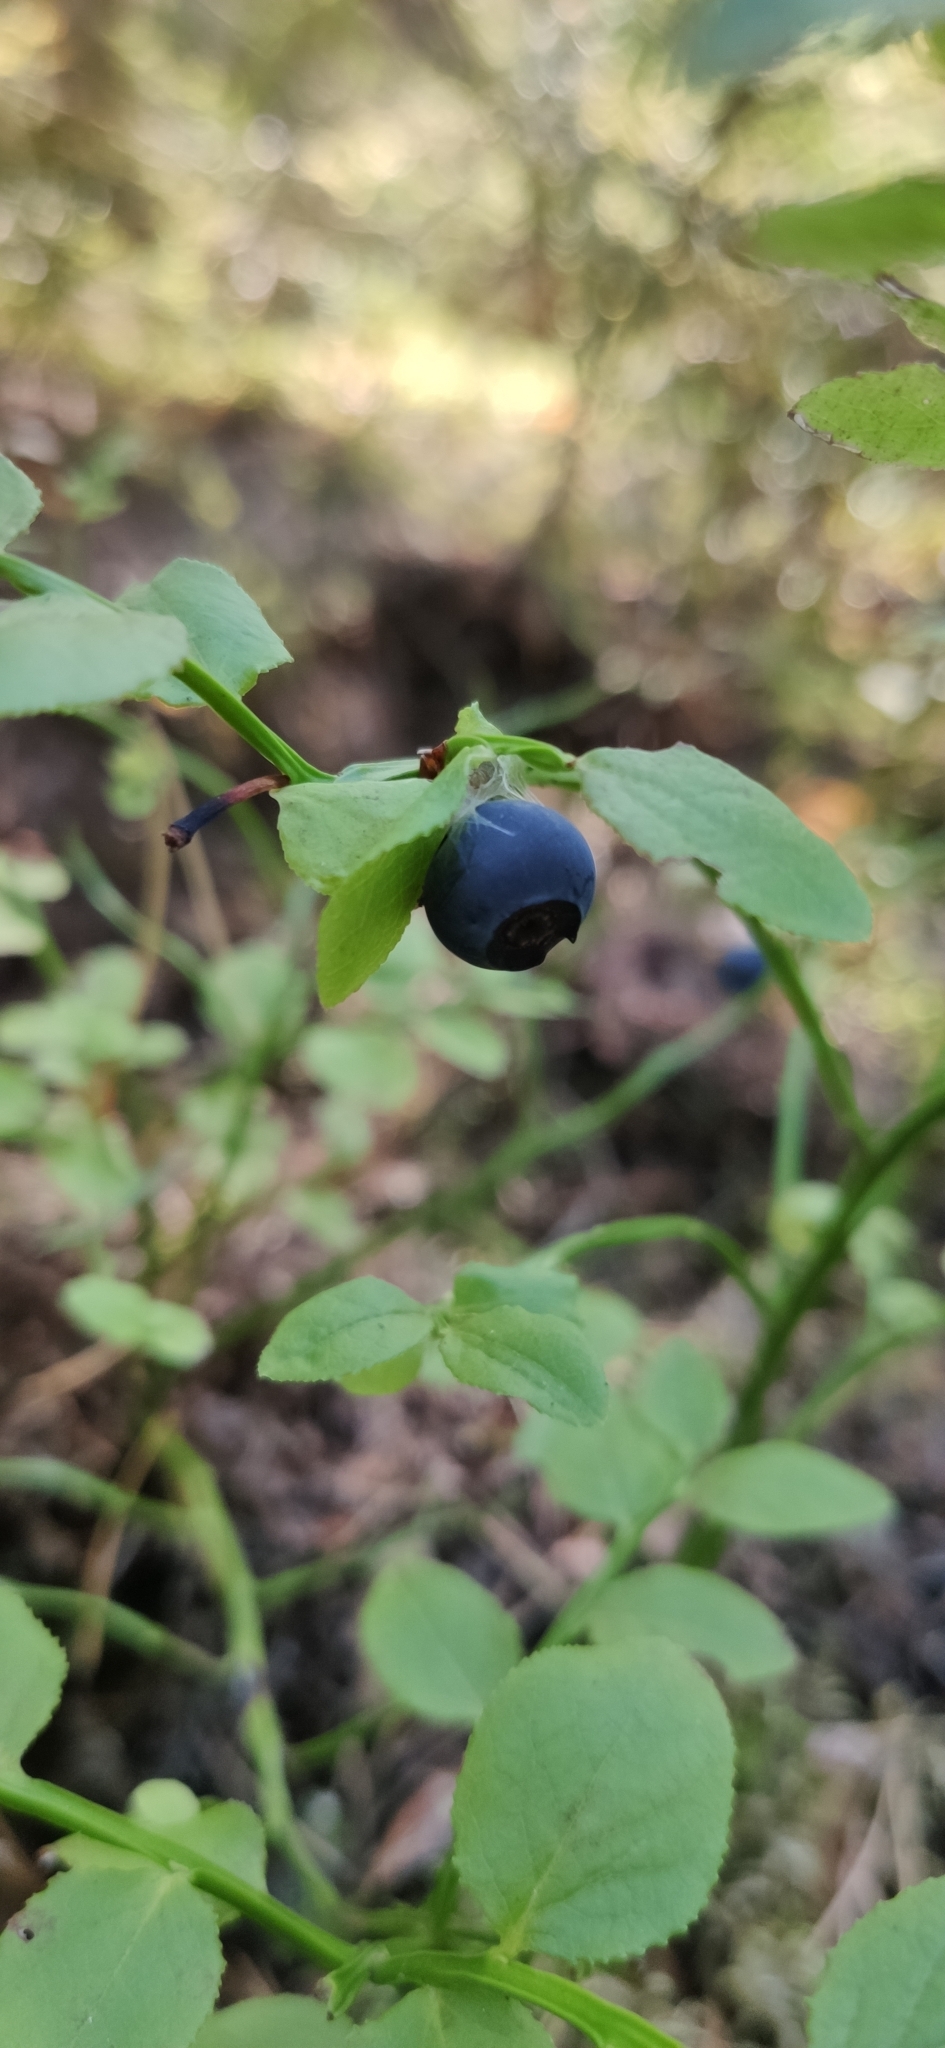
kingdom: Plantae
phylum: Tracheophyta
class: Magnoliopsida
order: Ericales
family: Ericaceae
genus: Vaccinium
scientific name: Vaccinium myrtillus
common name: Bilberry
